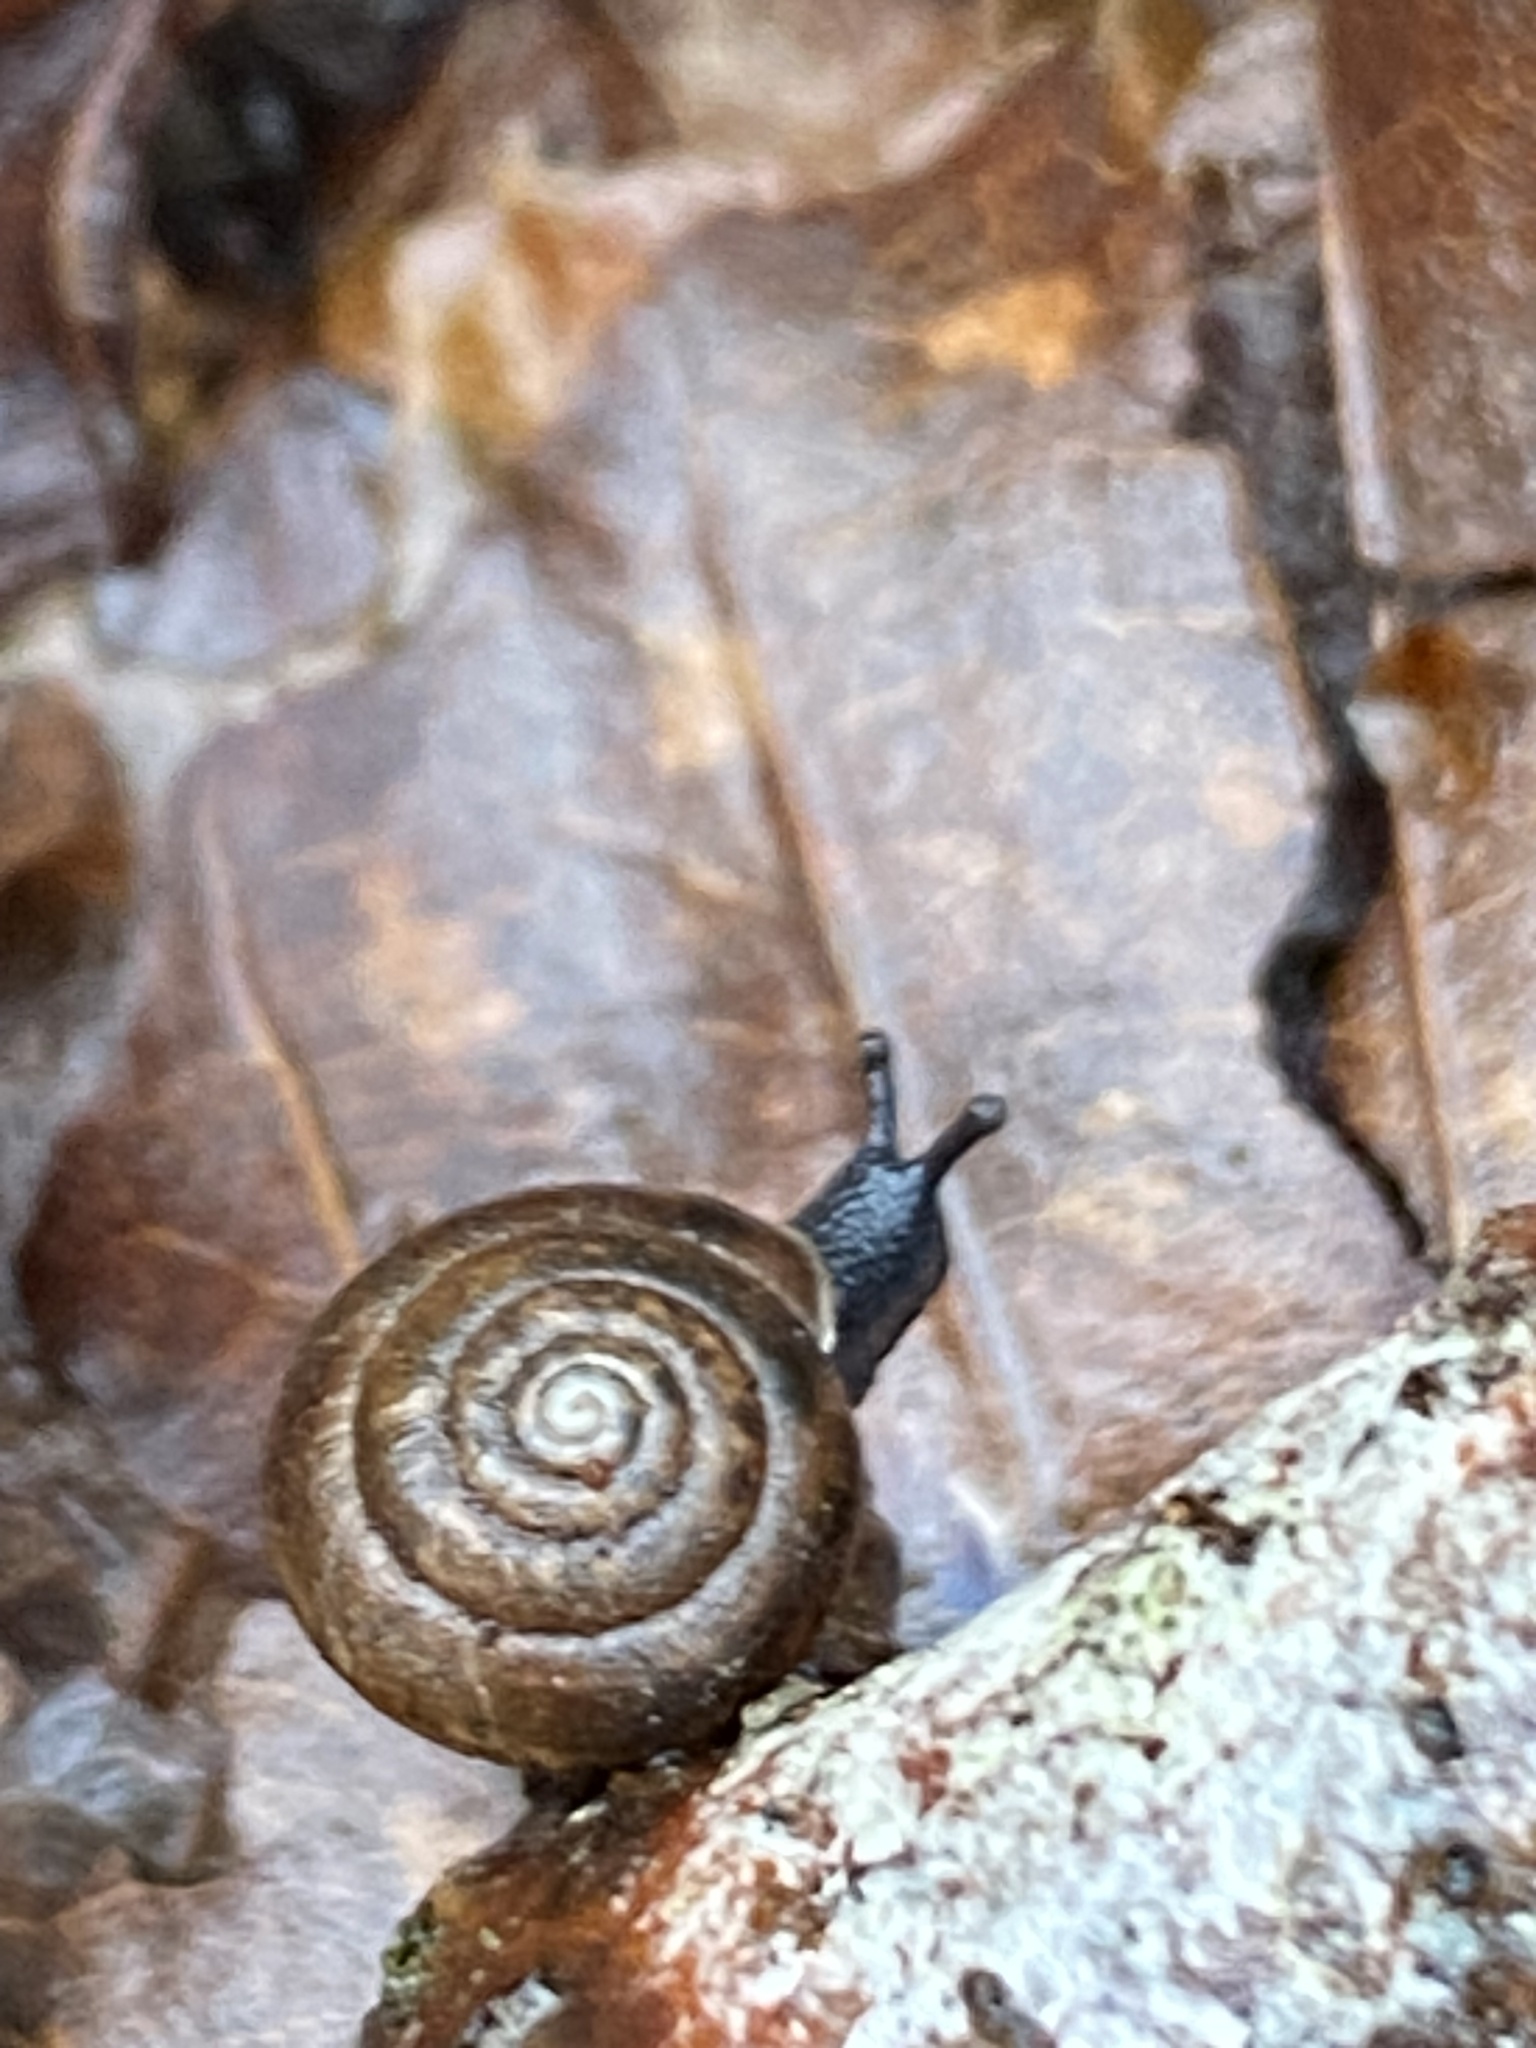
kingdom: Animalia
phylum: Mollusca
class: Gastropoda
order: Stylommatophora
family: Hygromiidae
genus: Trochulus
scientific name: Trochulus hispidus
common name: Hairy snail
